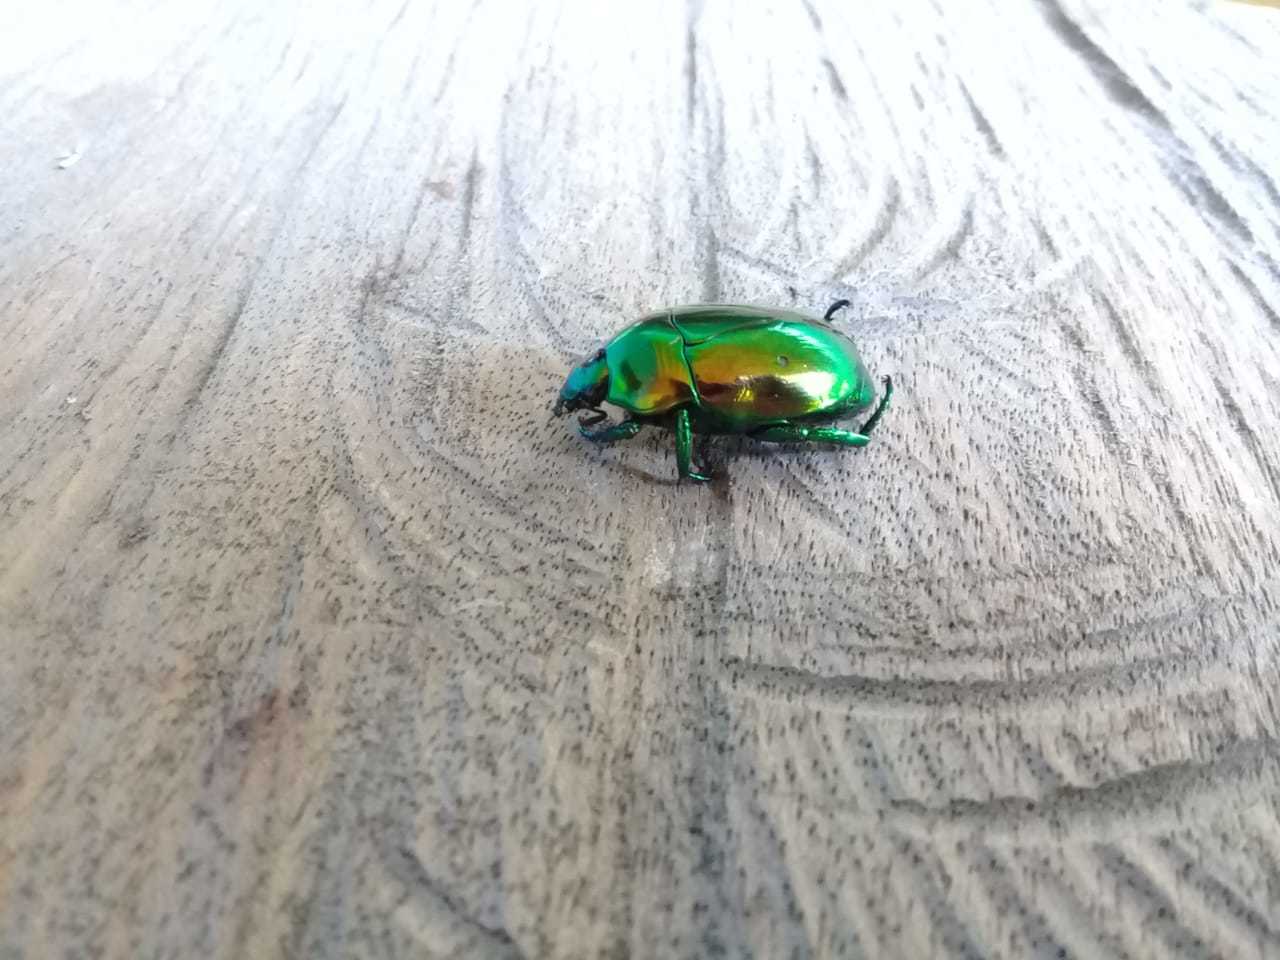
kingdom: Animalia
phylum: Arthropoda
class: Insecta
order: Coleoptera
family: Scarabaeidae
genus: Macraspis
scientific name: Macraspis chrysis
